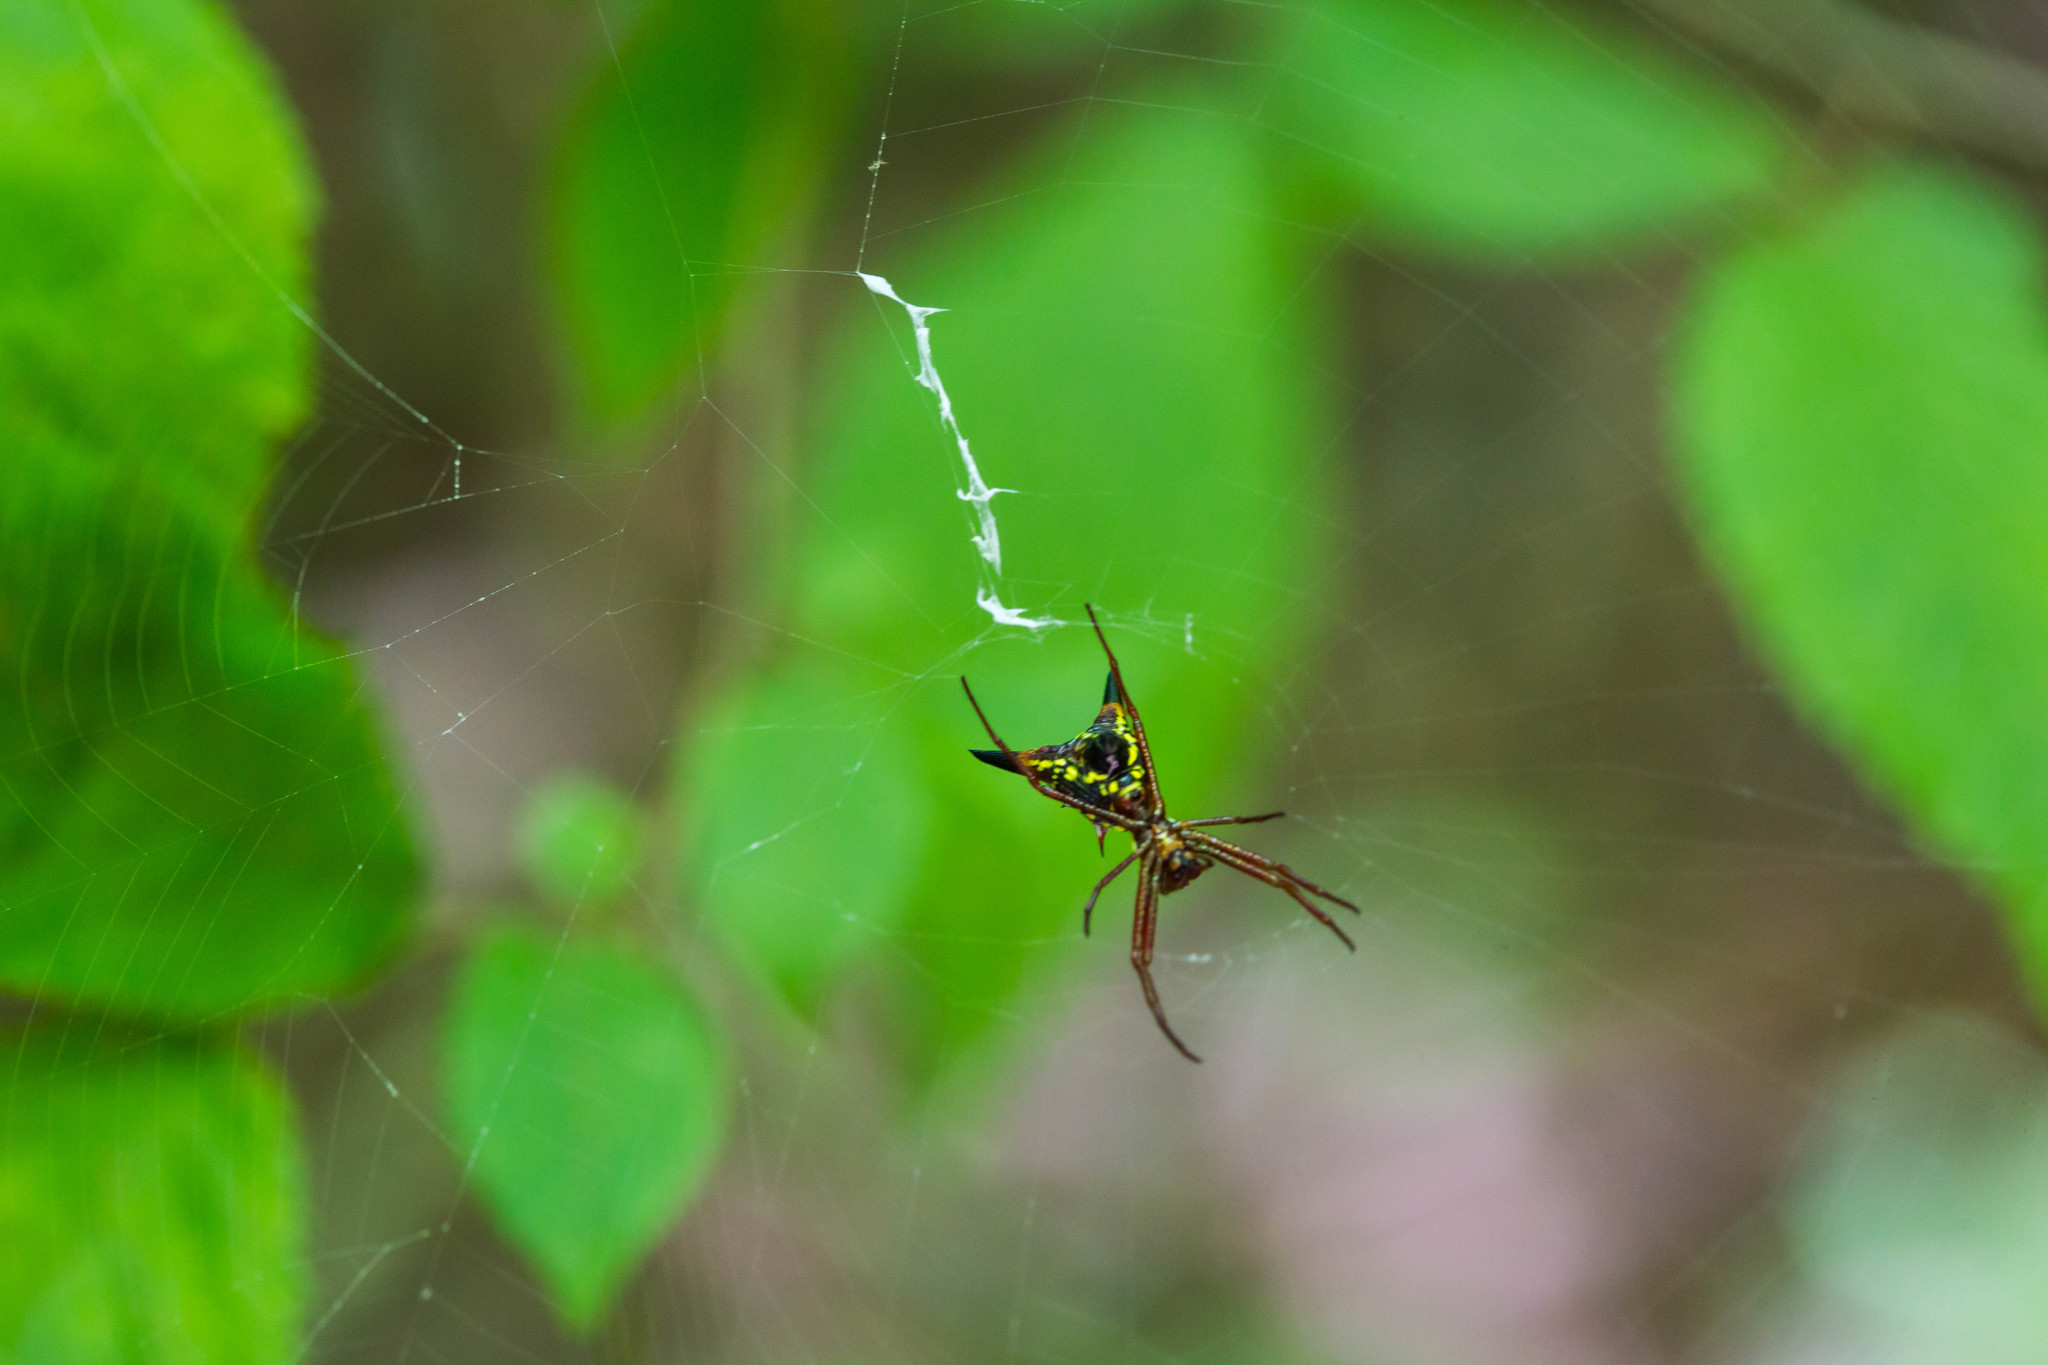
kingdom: Animalia
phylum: Arthropoda
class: Arachnida
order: Araneae
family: Araneidae
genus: Micrathena
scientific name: Micrathena sagittata
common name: Orb weavers
